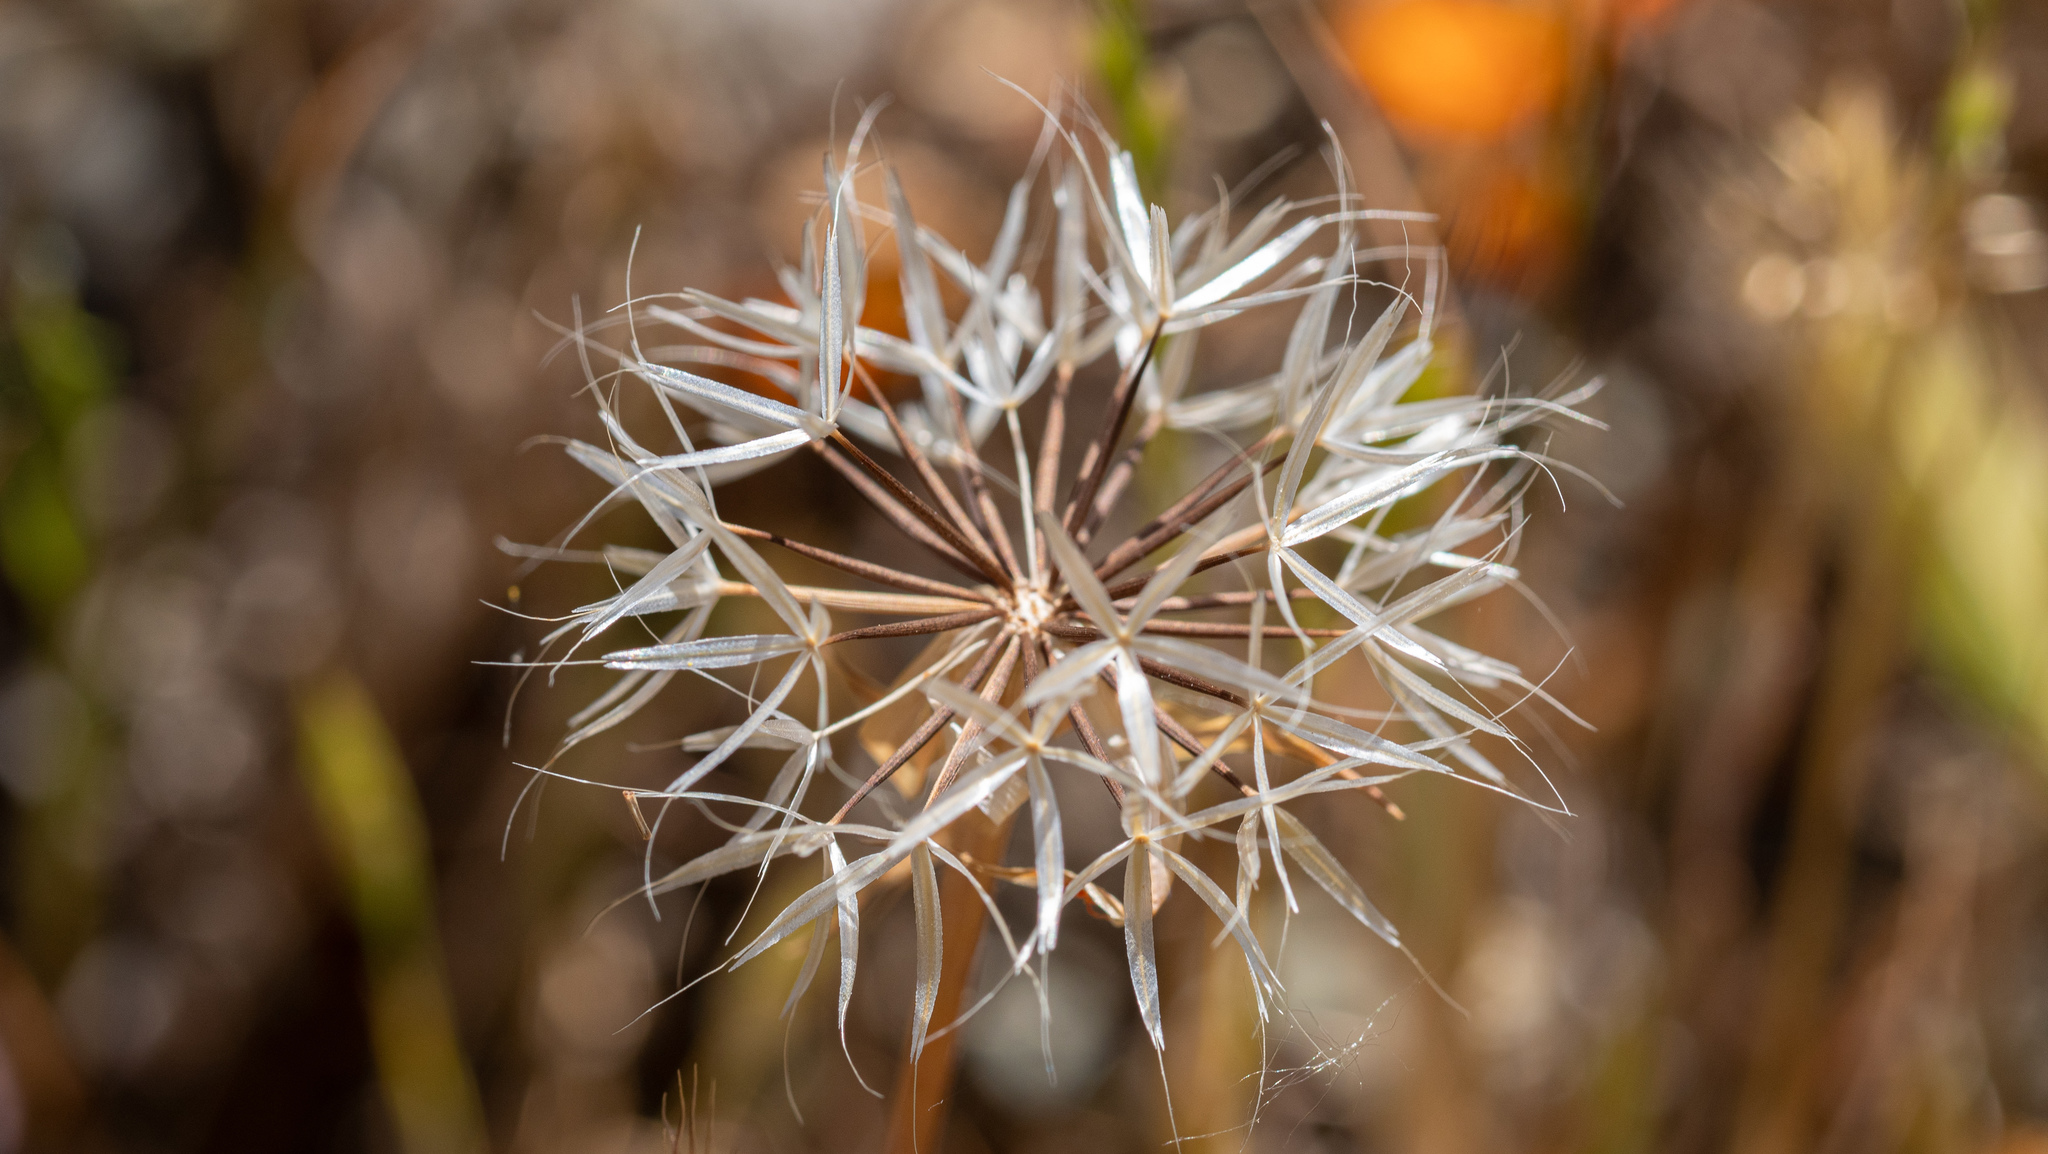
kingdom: Plantae
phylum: Tracheophyta
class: Magnoliopsida
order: Asterales
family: Asteraceae
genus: Microseris
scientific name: Microseris lindleyi
